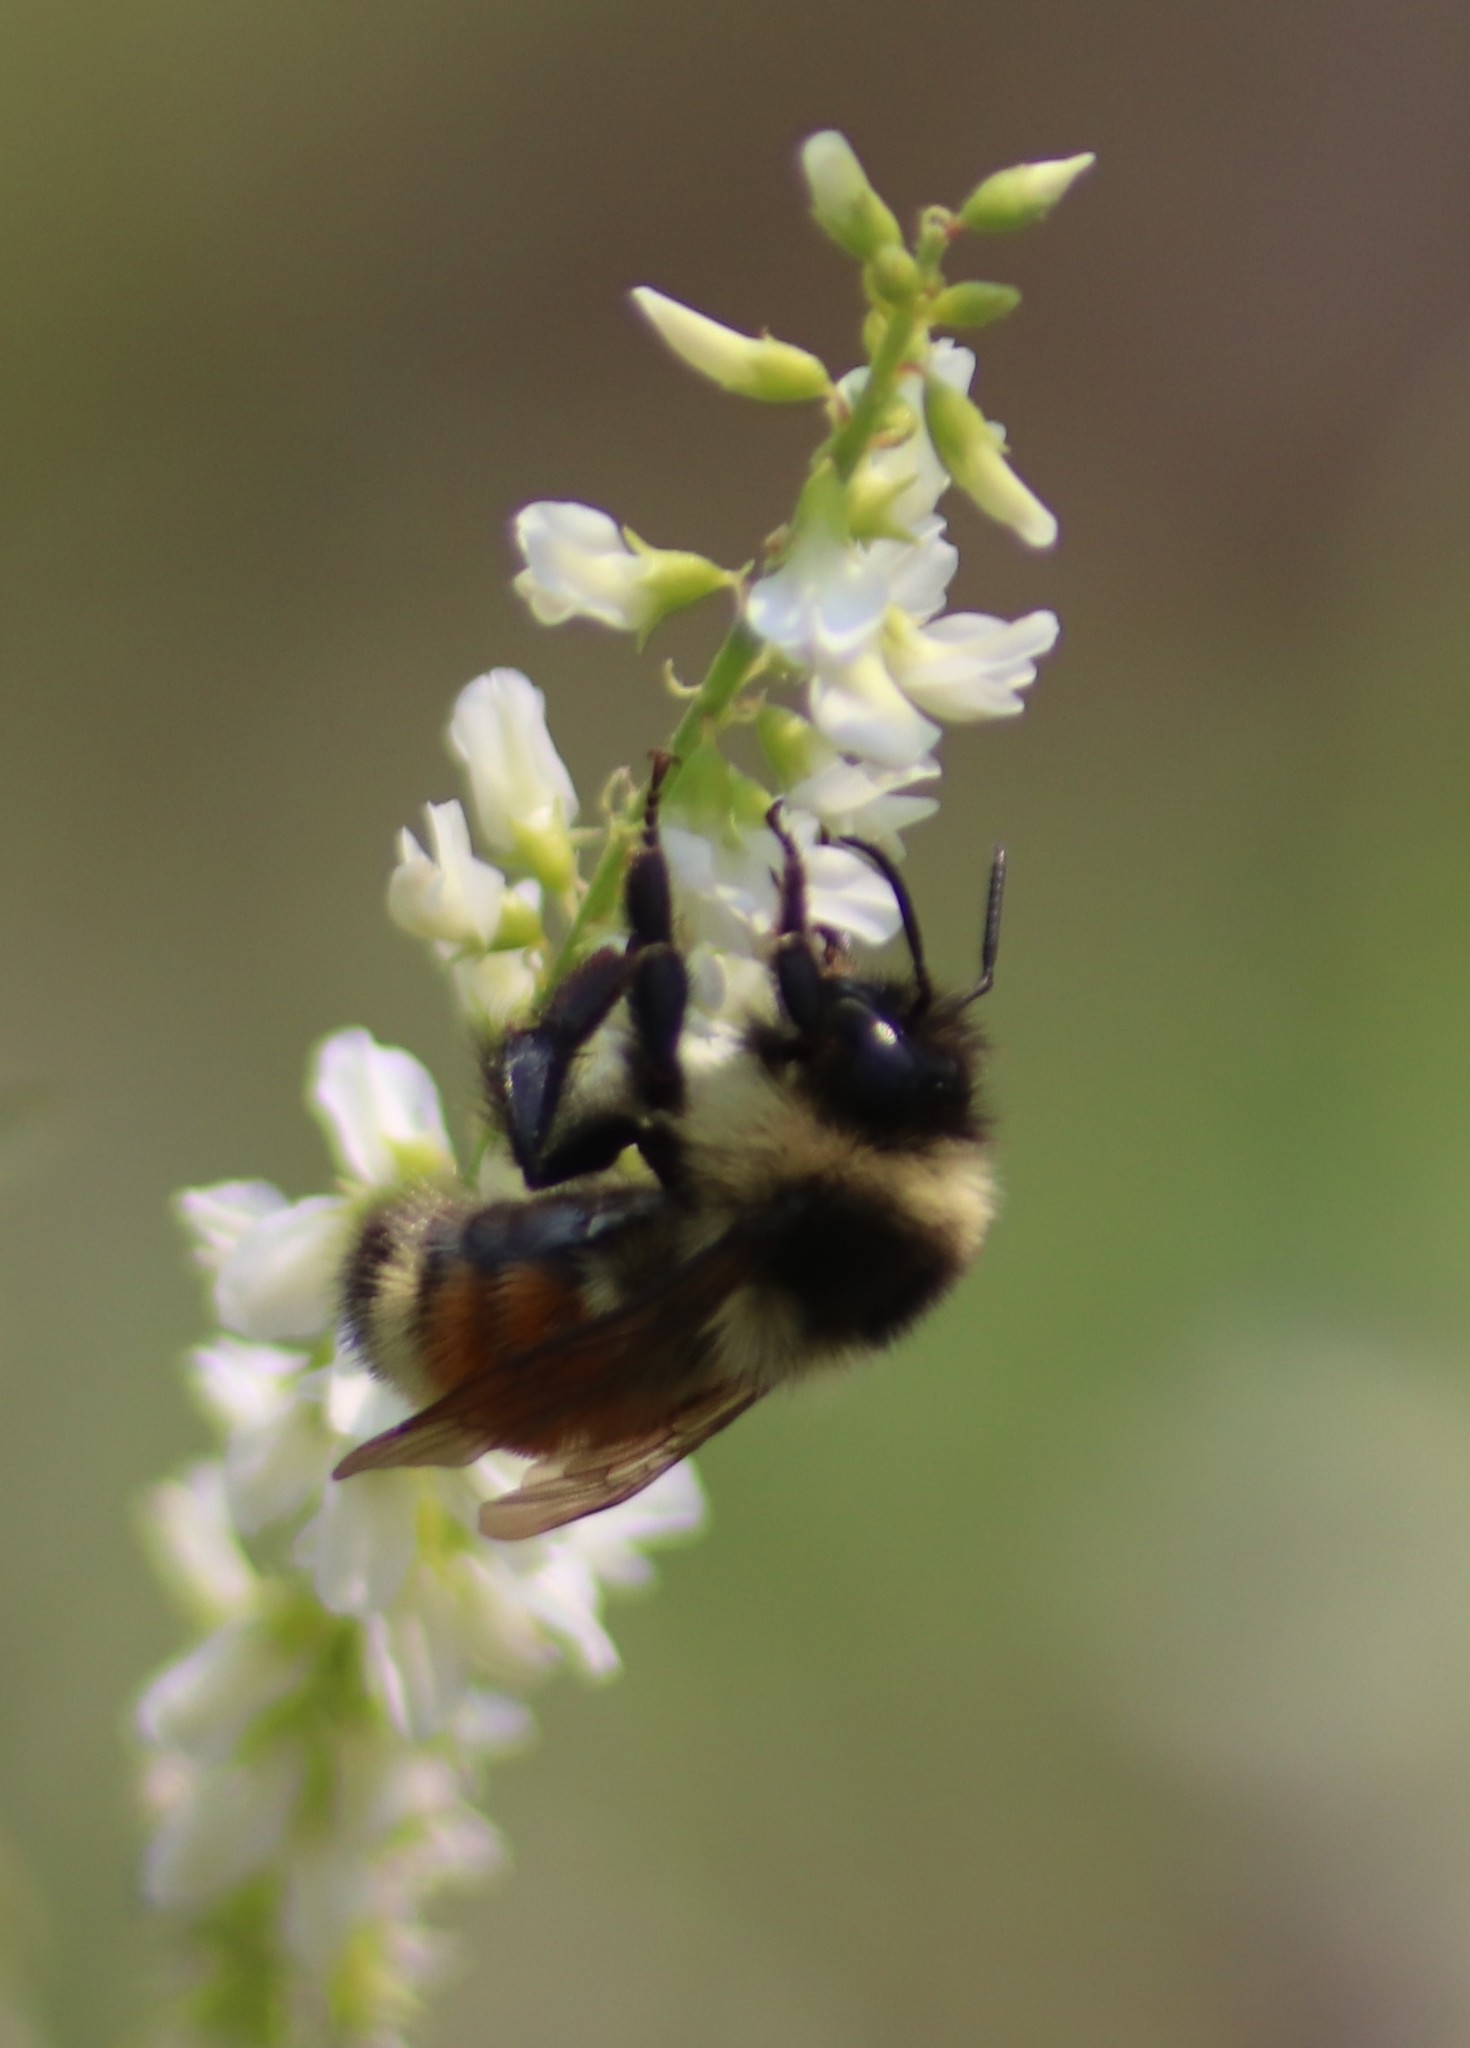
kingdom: Animalia
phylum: Arthropoda
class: Insecta
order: Hymenoptera
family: Apidae
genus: Bombus
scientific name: Bombus ternarius
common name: Tri-colored bumble bee
